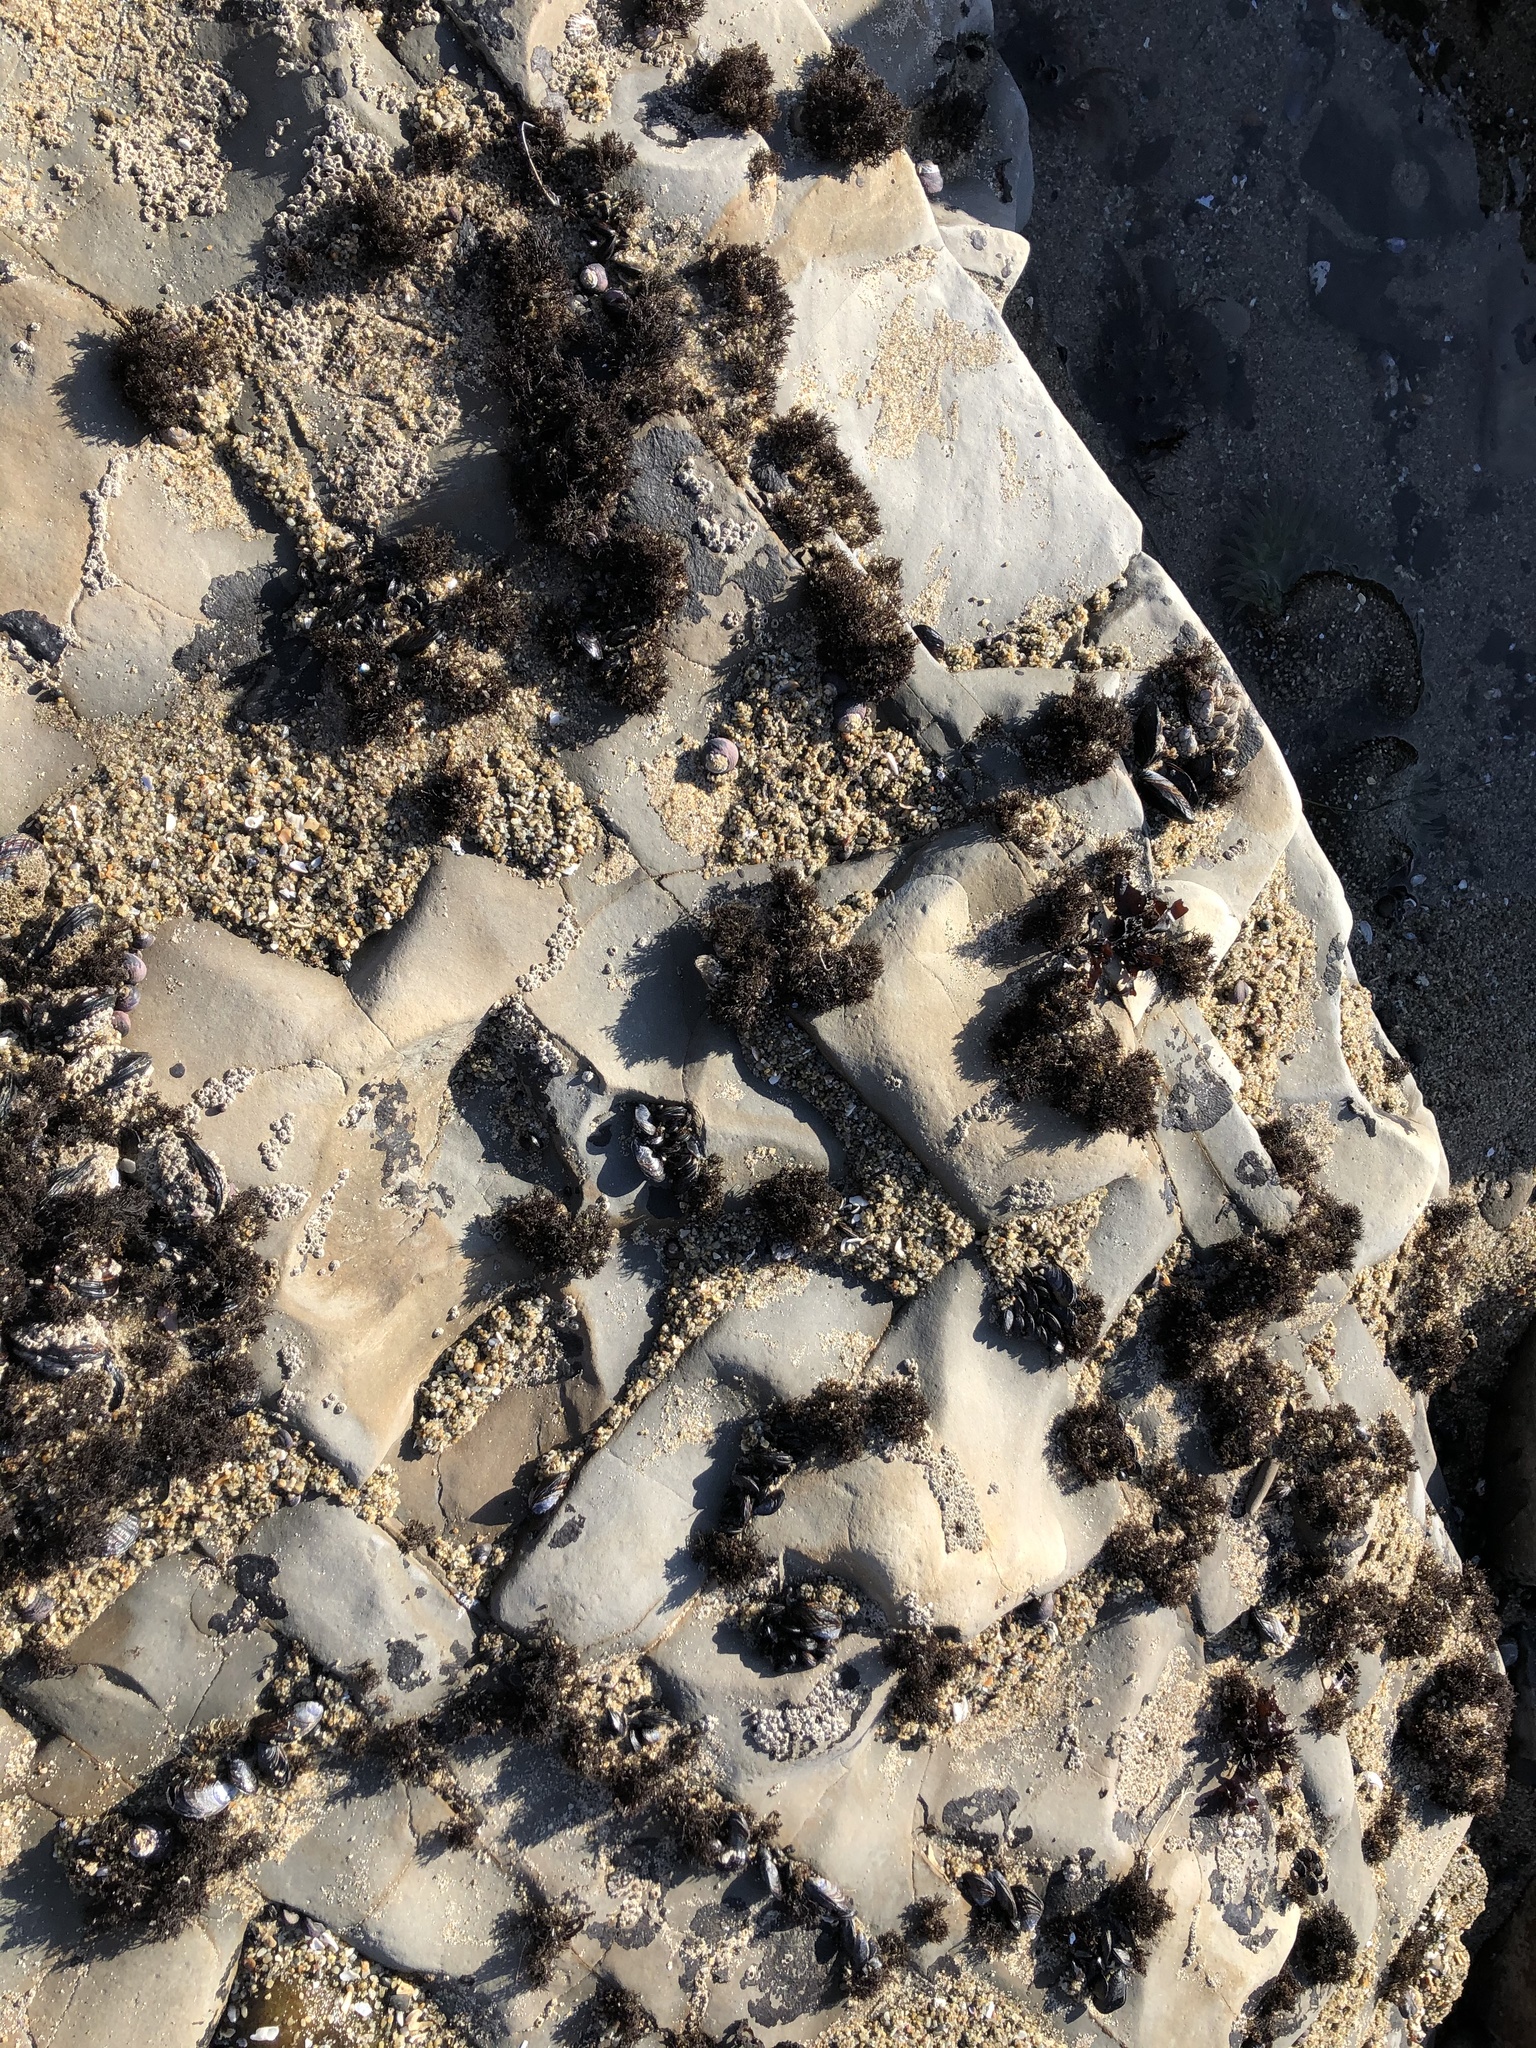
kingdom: Plantae
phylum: Rhodophyta
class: Florideophyceae
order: Gigartinales
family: Endocladiaceae
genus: Endocladia
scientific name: Endocladia muricata
